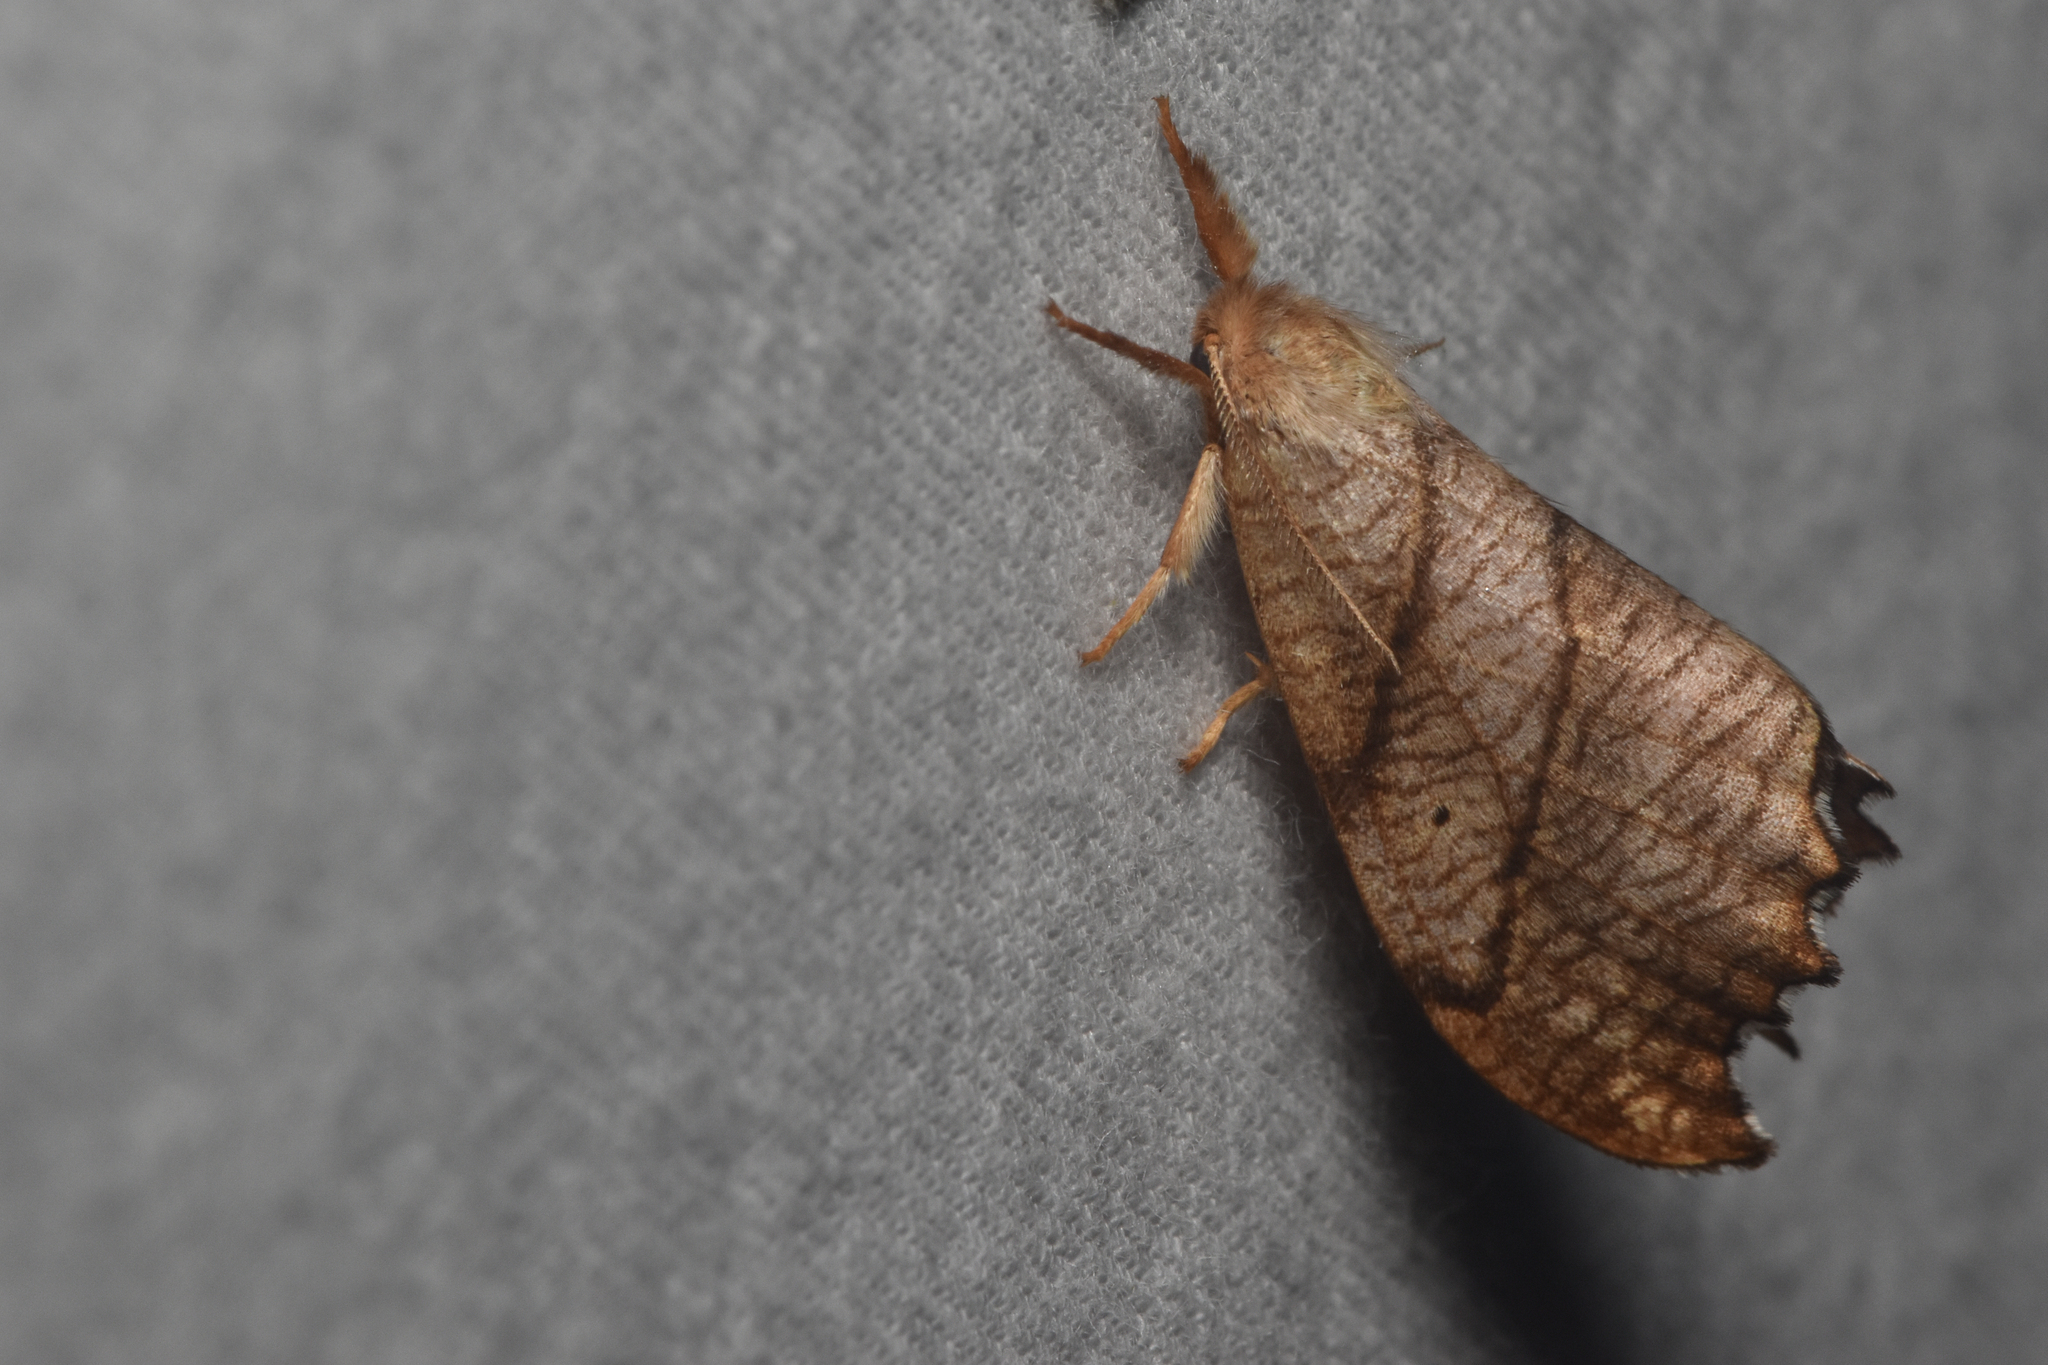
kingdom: Animalia
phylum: Arthropoda
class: Insecta
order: Lepidoptera
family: Drepanidae
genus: Falcaria
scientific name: Falcaria bilineata
